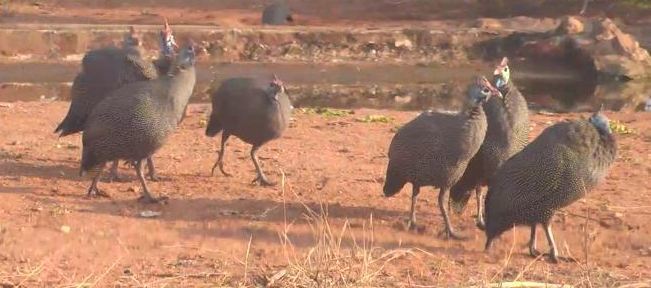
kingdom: Animalia
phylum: Chordata
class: Aves
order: Galliformes
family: Numididae
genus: Numida
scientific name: Numida meleagris
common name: Helmeted guineafowl
